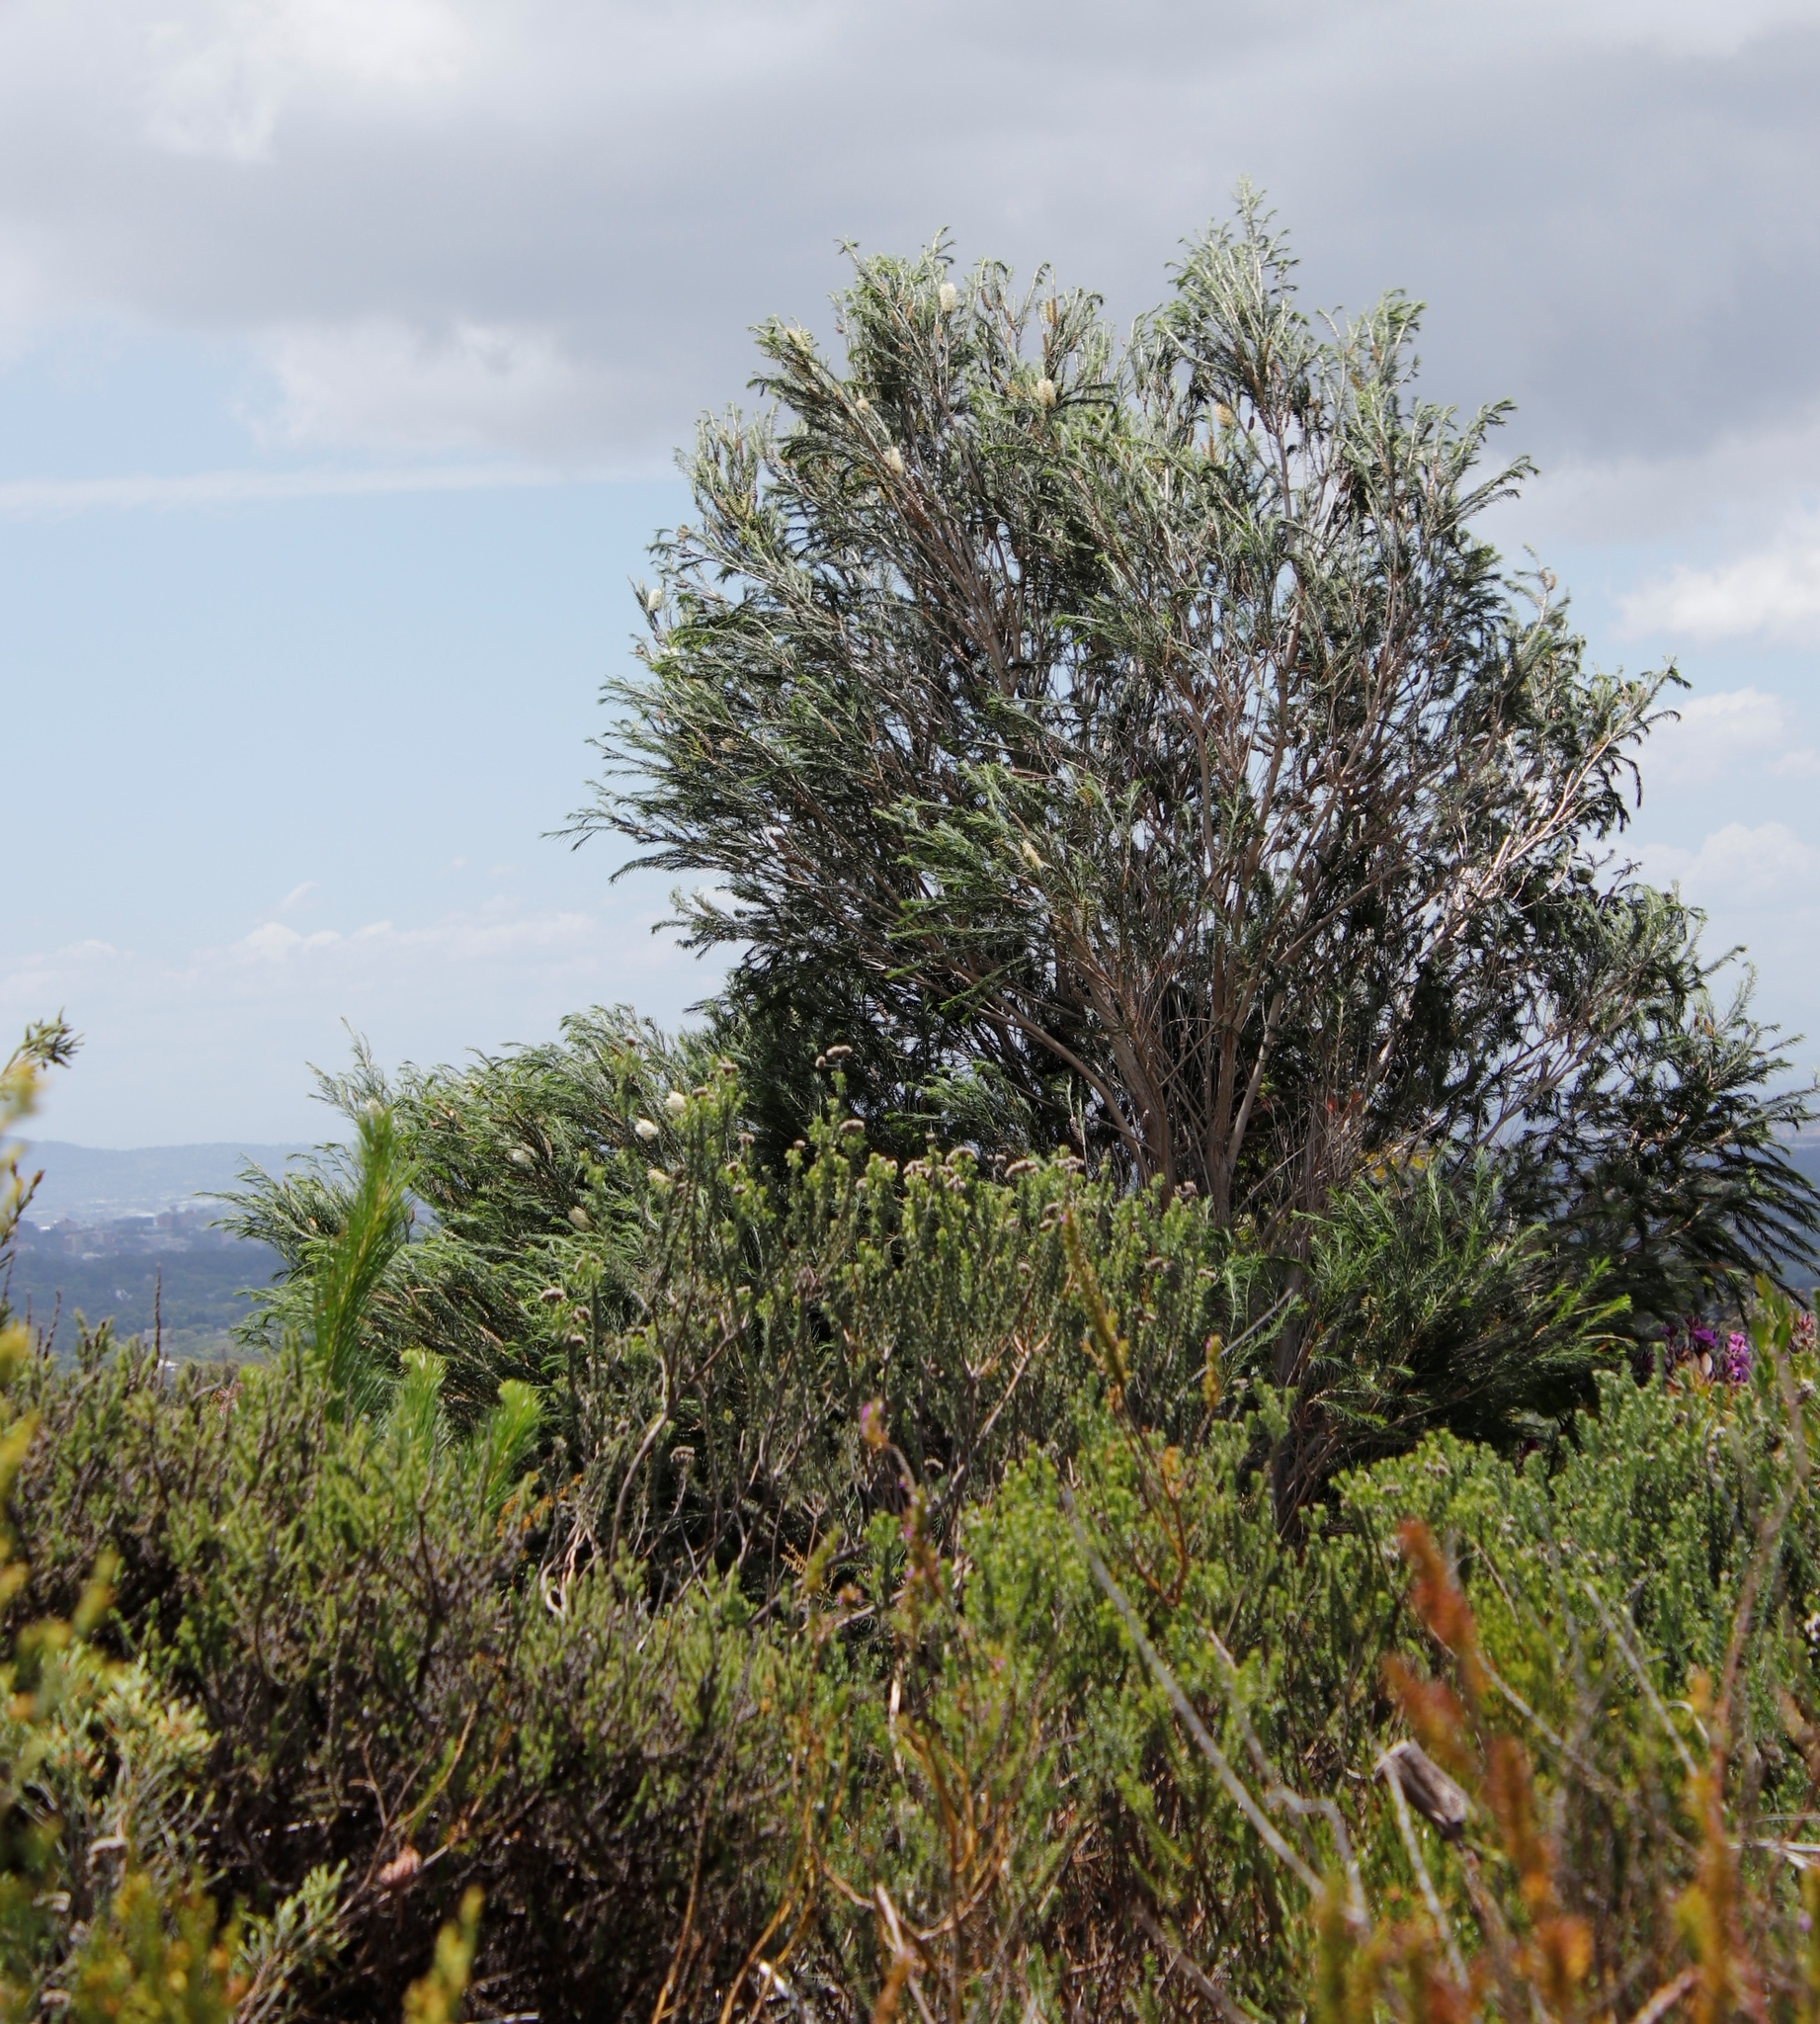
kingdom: Plantae
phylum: Tracheophyta
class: Magnoliopsida
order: Myrtales
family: Myrtaceae
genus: Melaleuca
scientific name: Melaleuca armillaris
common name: Bracelet honey myrtle
